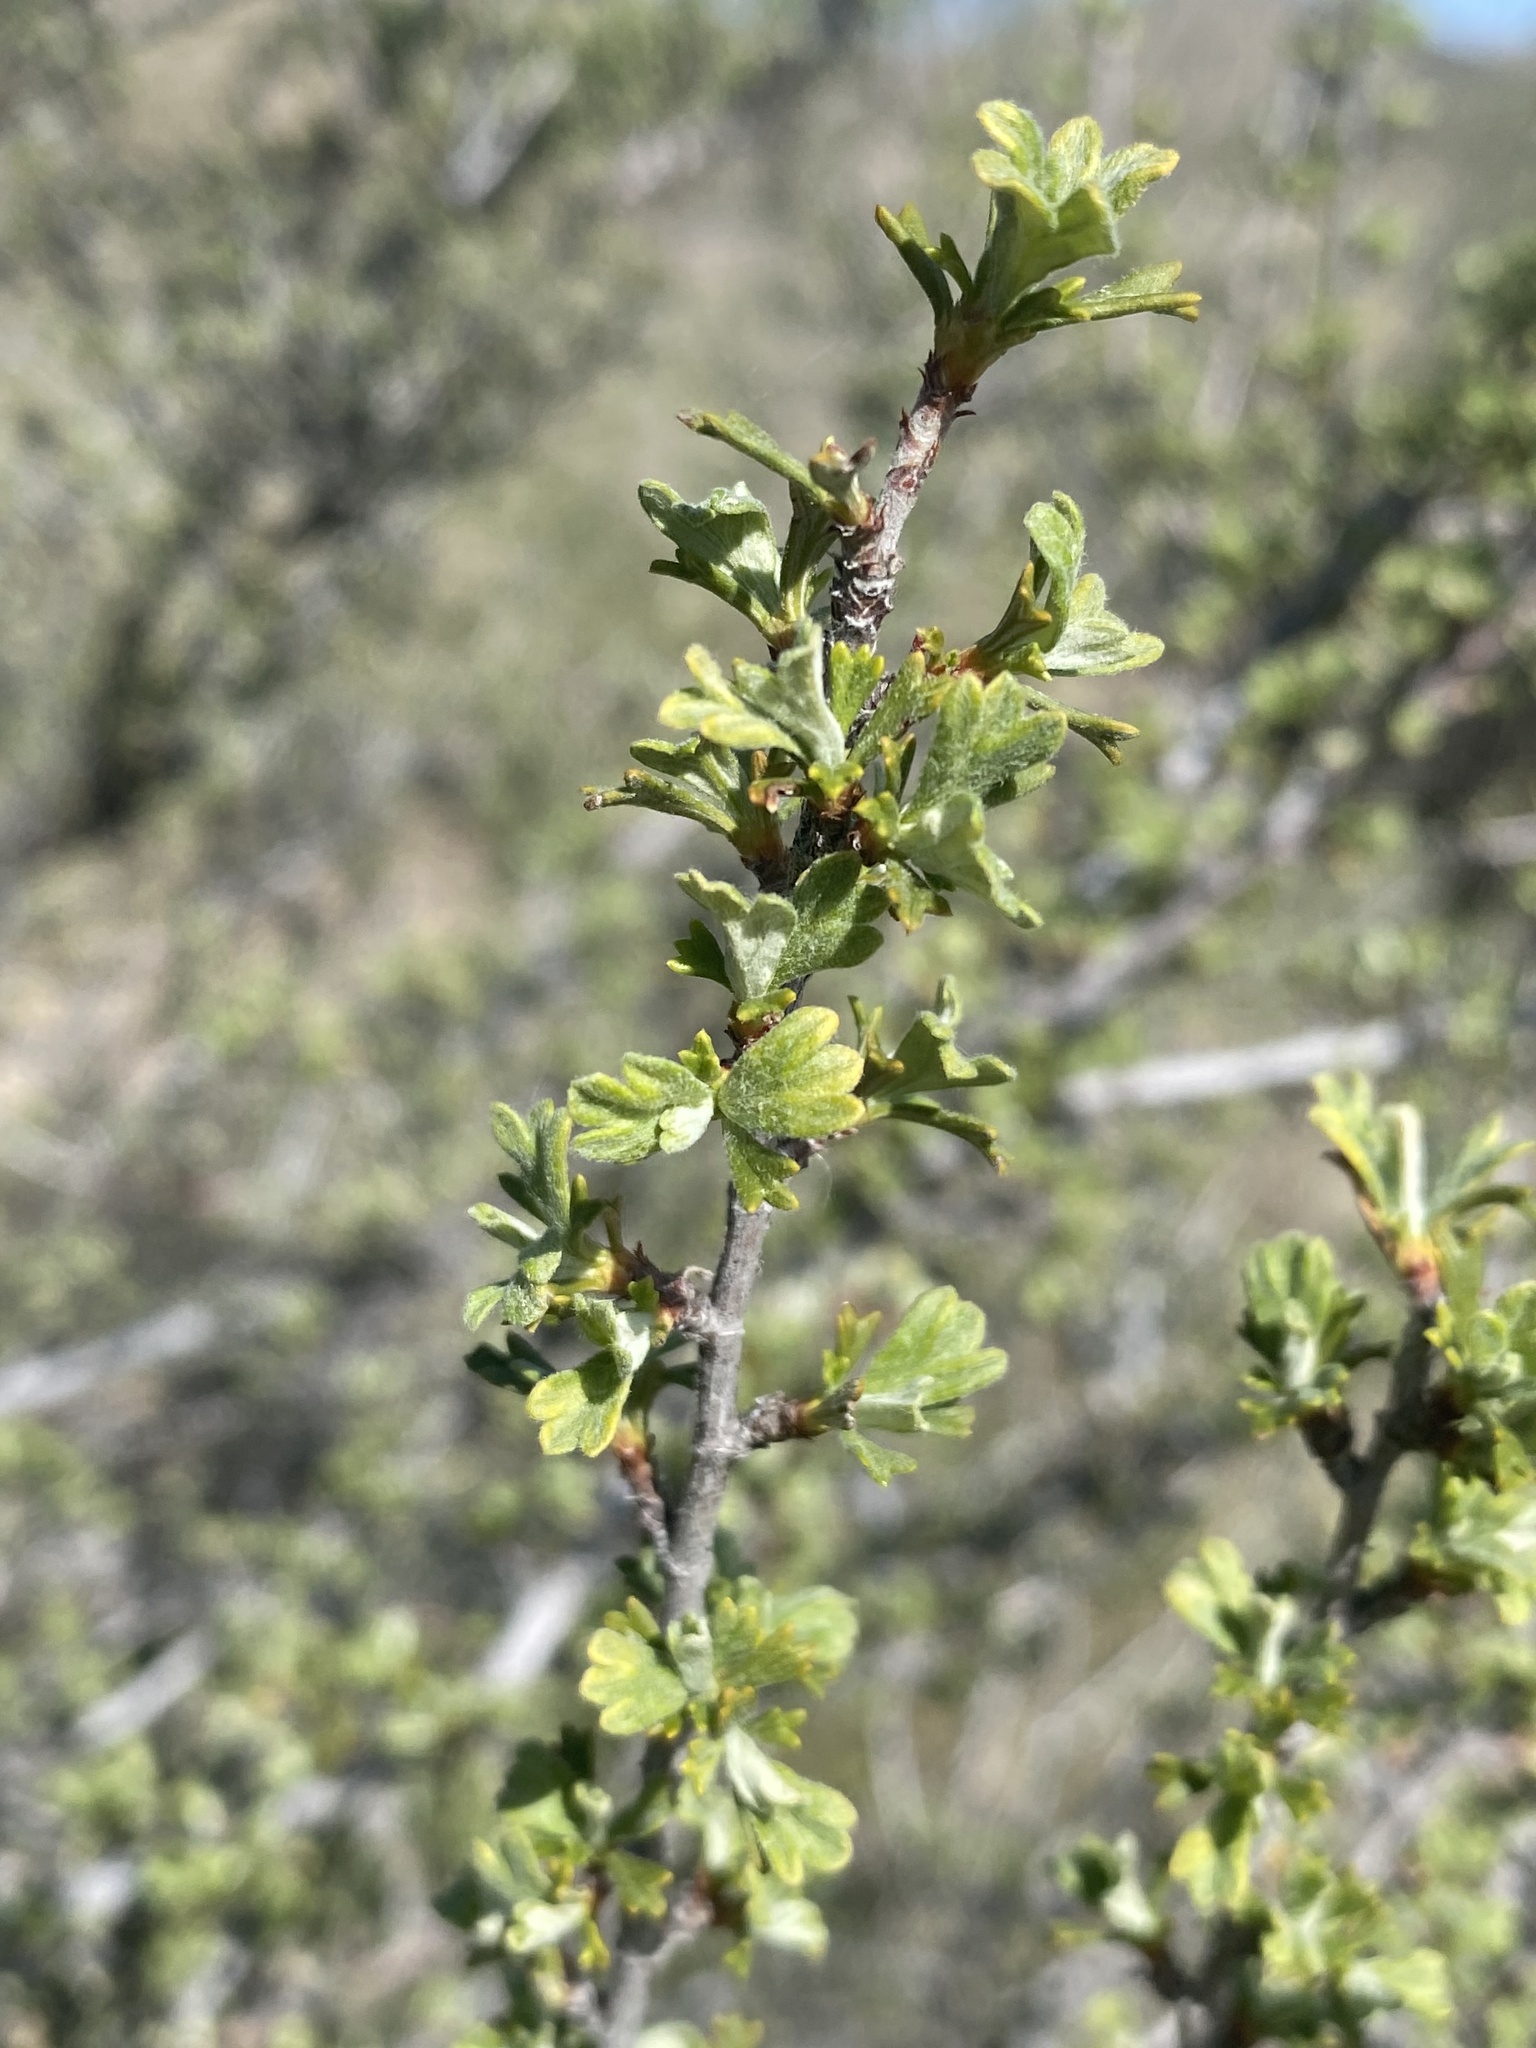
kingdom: Plantae
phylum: Tracheophyta
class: Magnoliopsida
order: Rosales
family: Rosaceae
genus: Purshia
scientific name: Purshia tridentata
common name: Antelope bitterbrush
